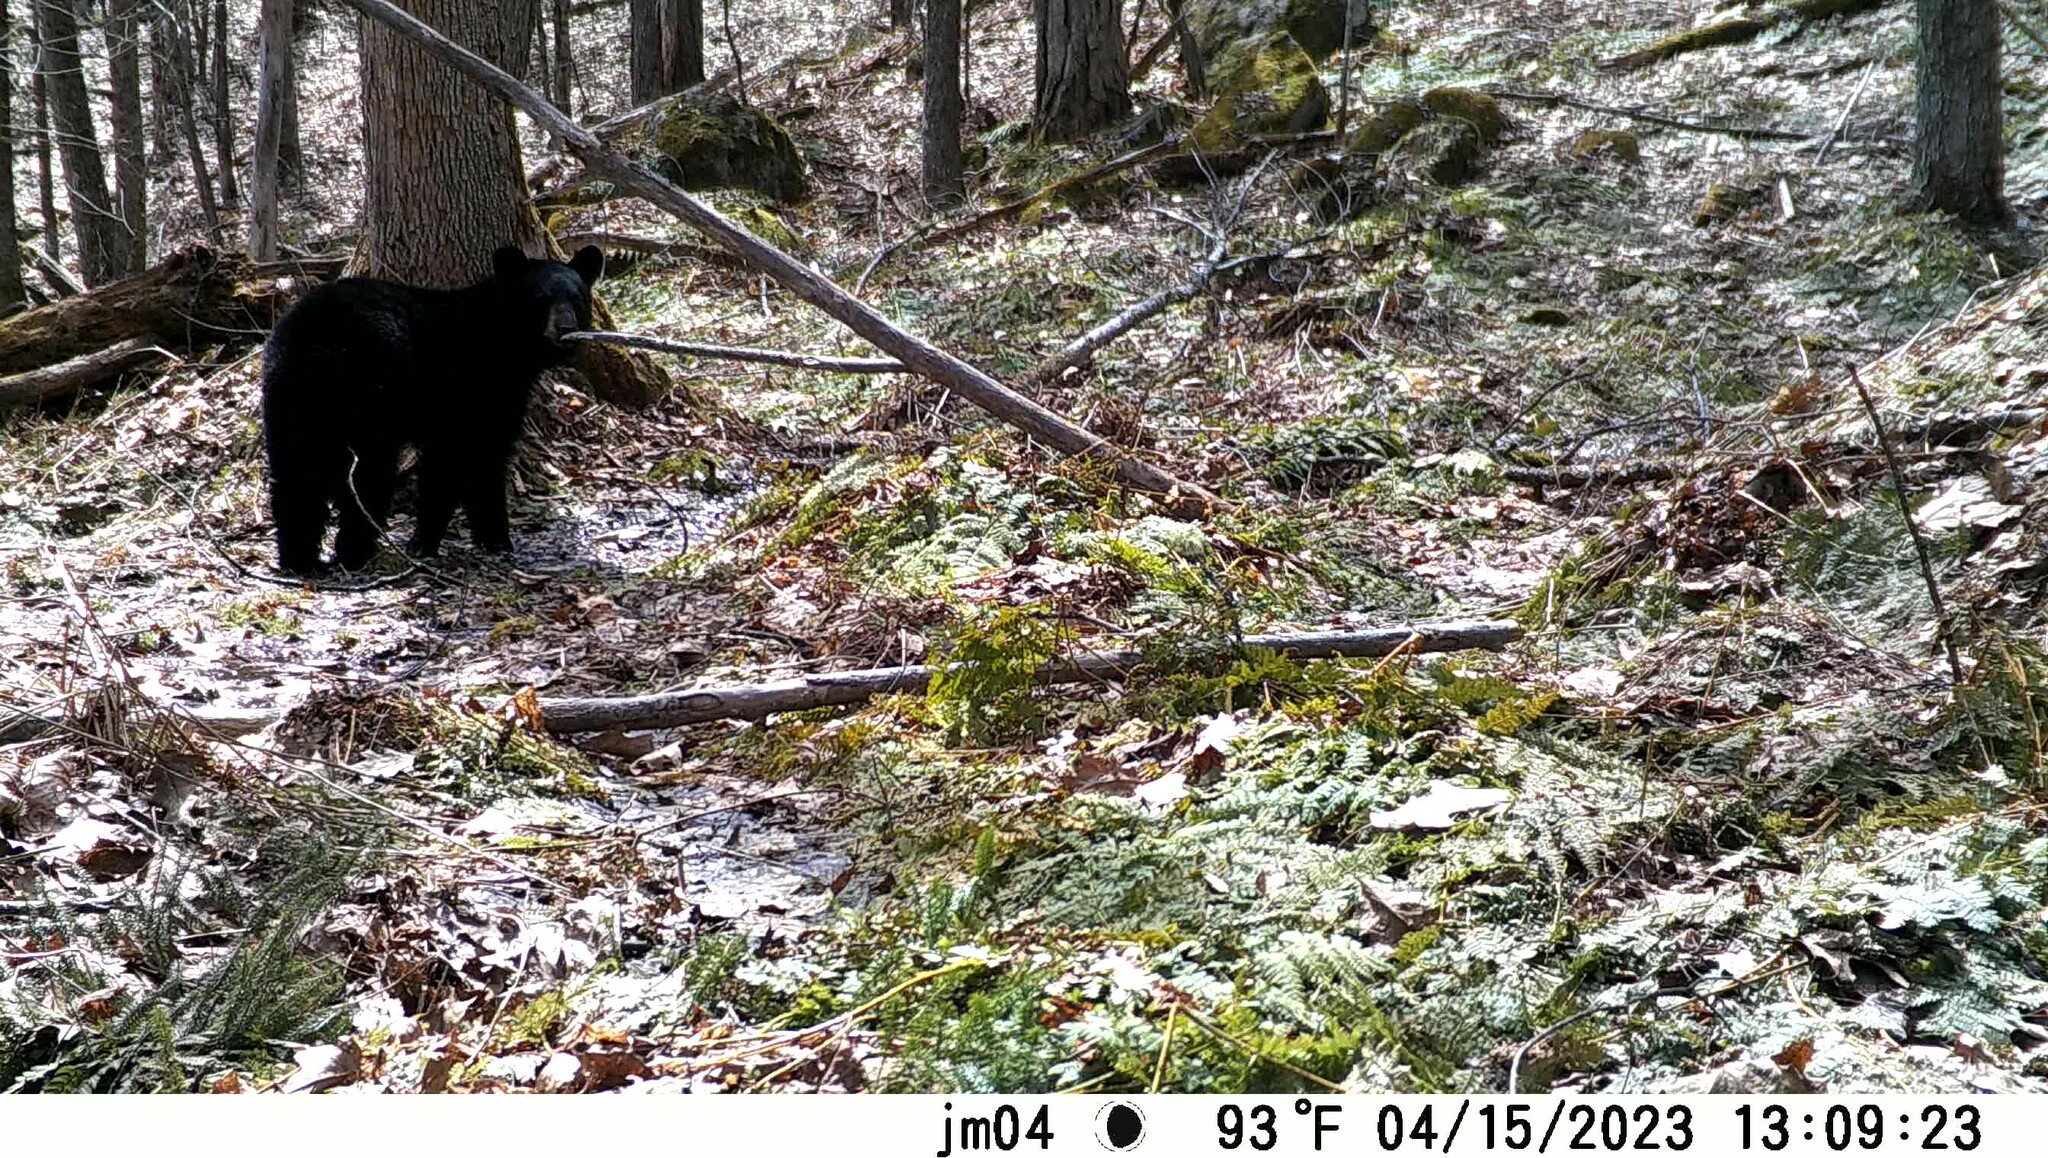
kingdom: Animalia
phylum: Chordata
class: Mammalia
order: Carnivora
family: Ursidae
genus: Ursus
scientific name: Ursus americanus
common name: American black bear
